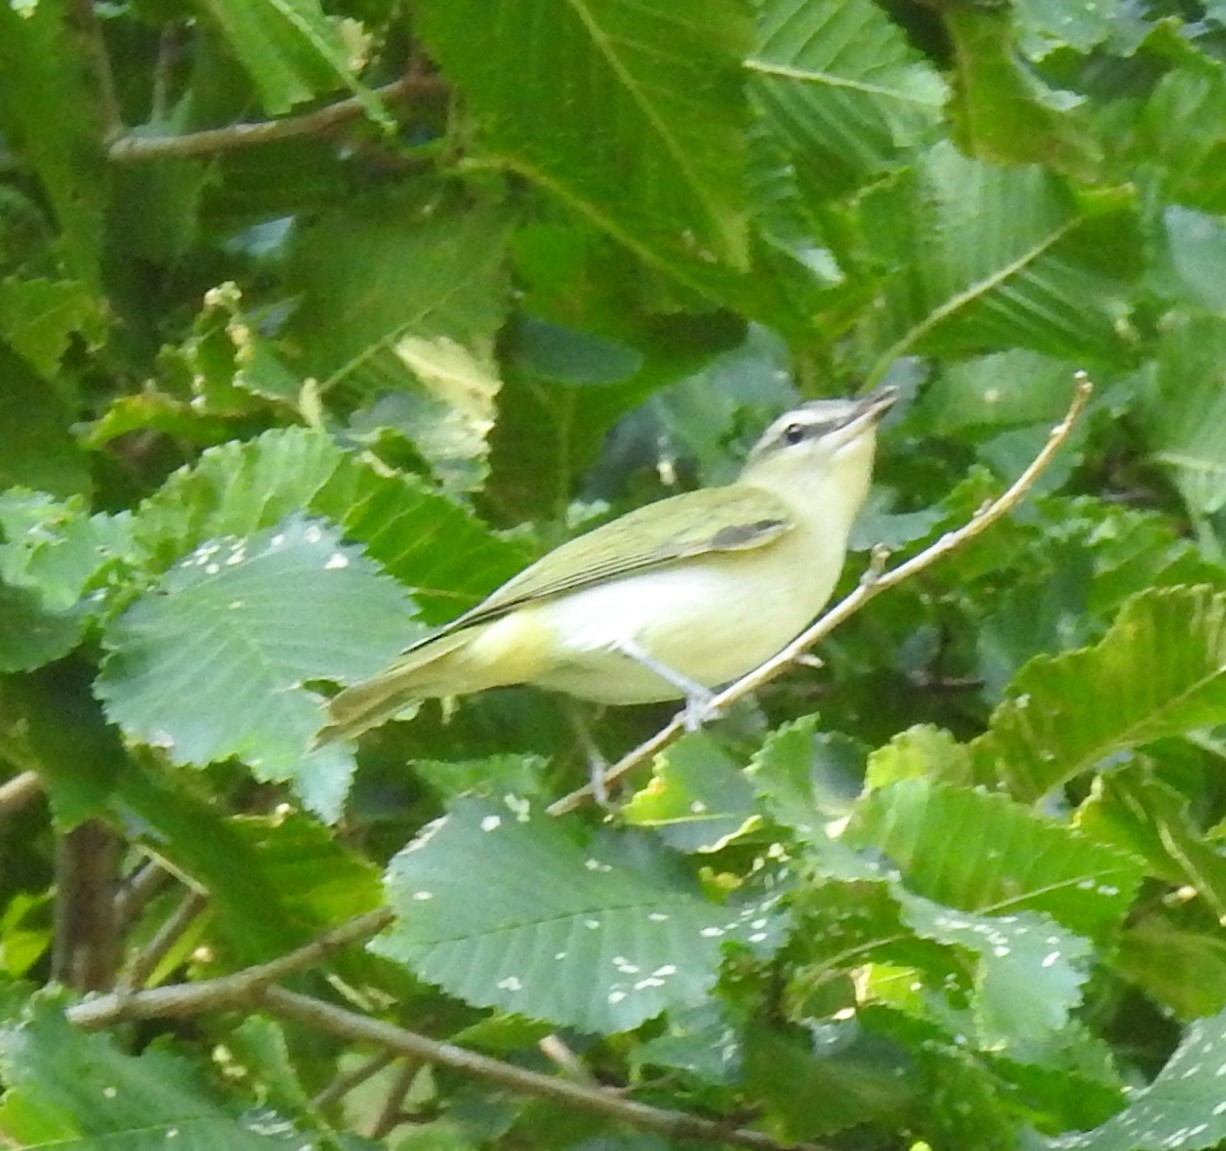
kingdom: Animalia
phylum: Chordata
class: Aves
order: Passeriformes
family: Vireonidae
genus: Vireo
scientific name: Vireo olivaceus
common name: Red-eyed vireo
